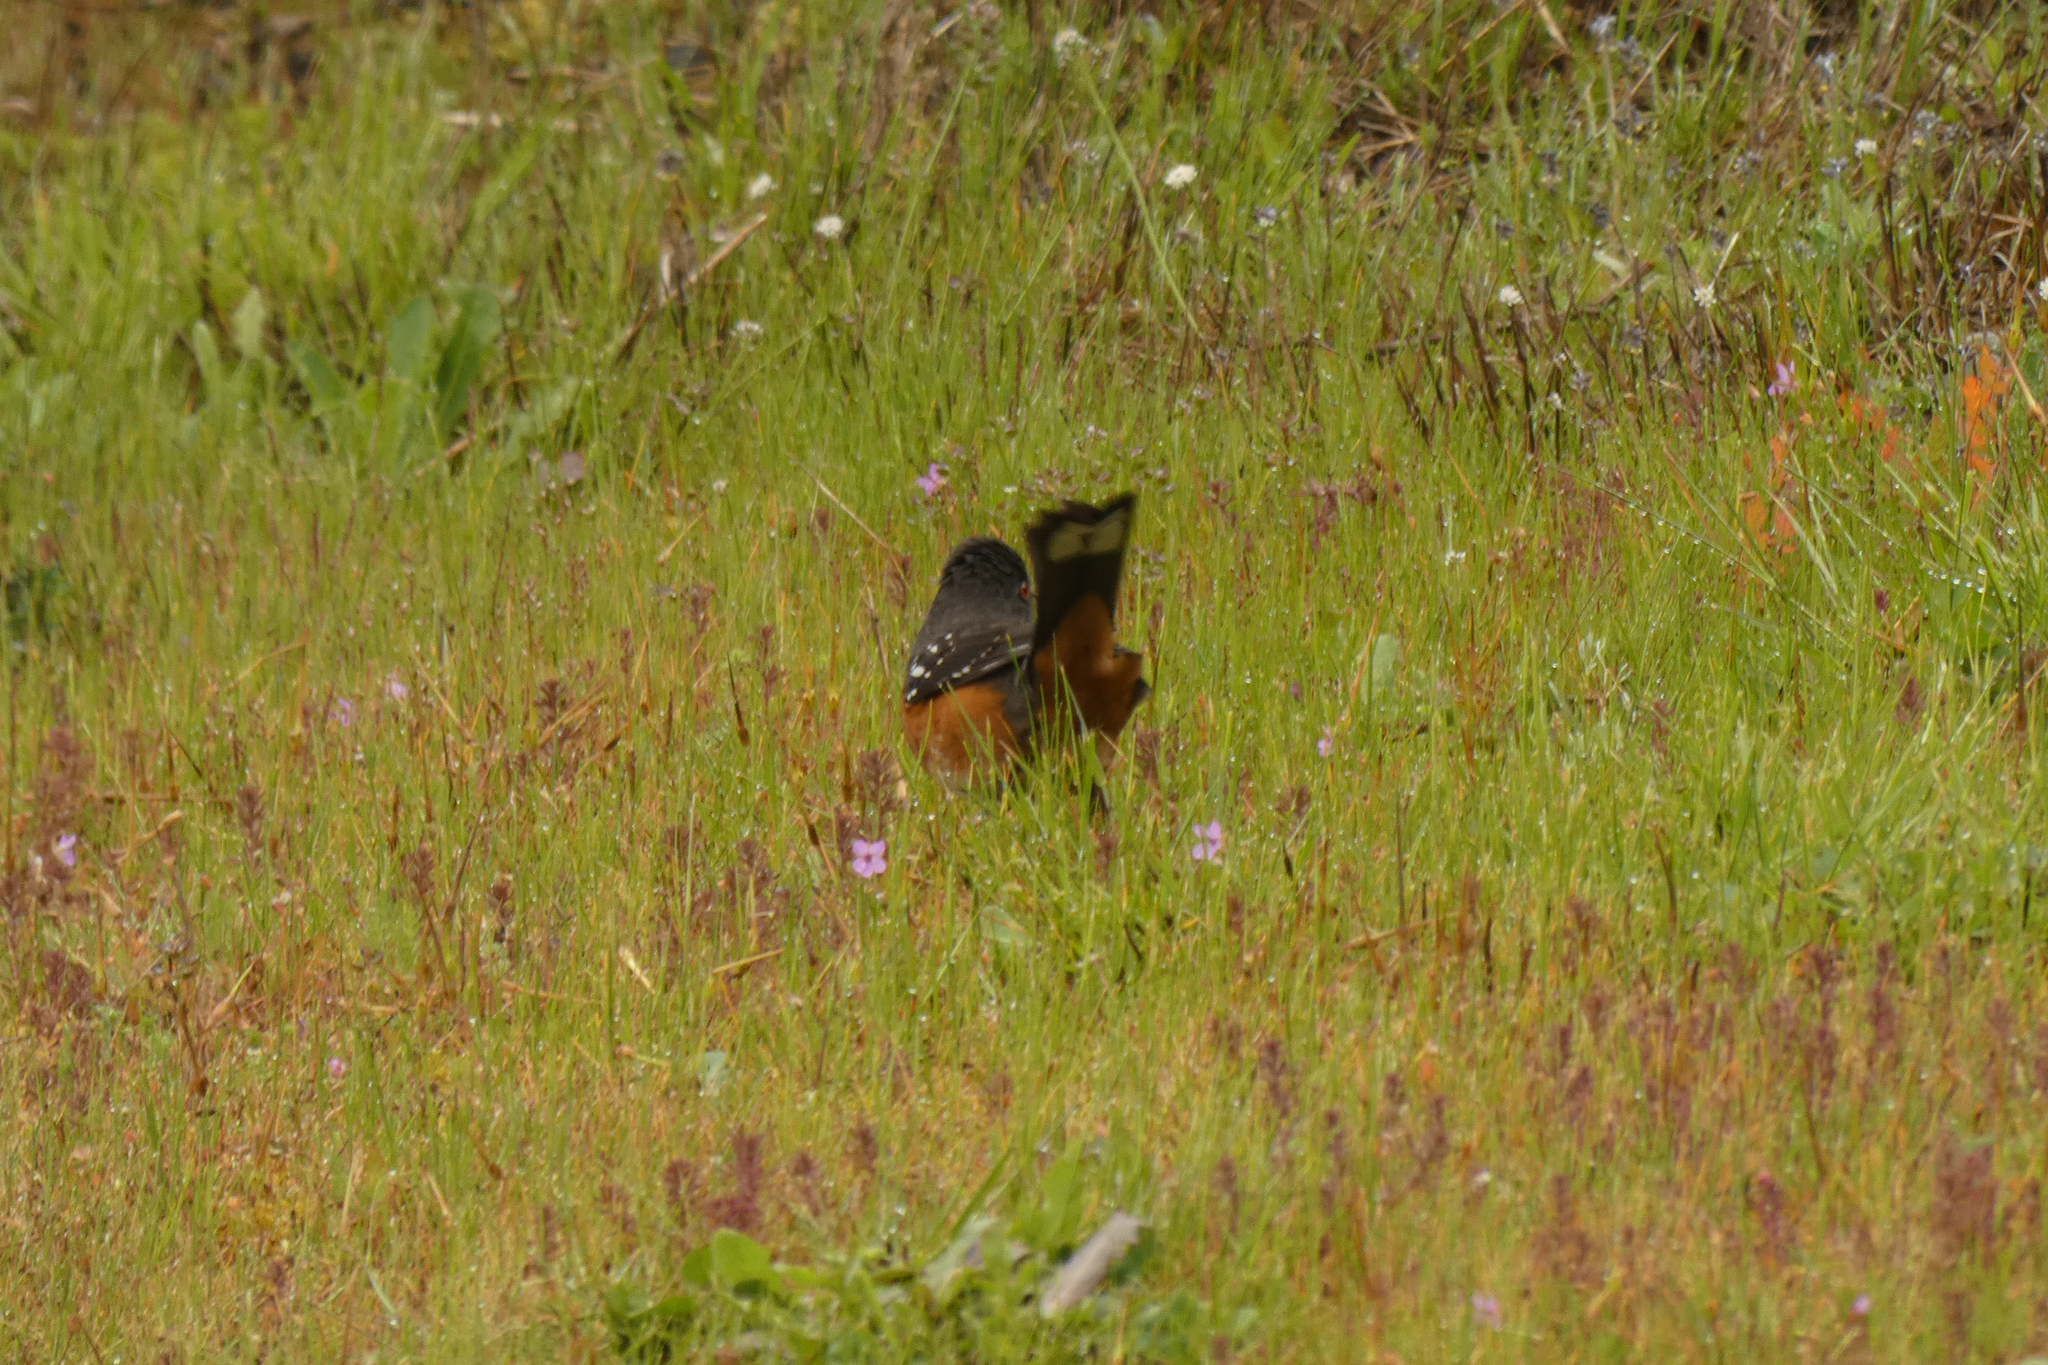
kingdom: Animalia
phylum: Chordata
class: Aves
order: Passeriformes
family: Passerellidae
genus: Pipilo
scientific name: Pipilo maculatus
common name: Spotted towhee
